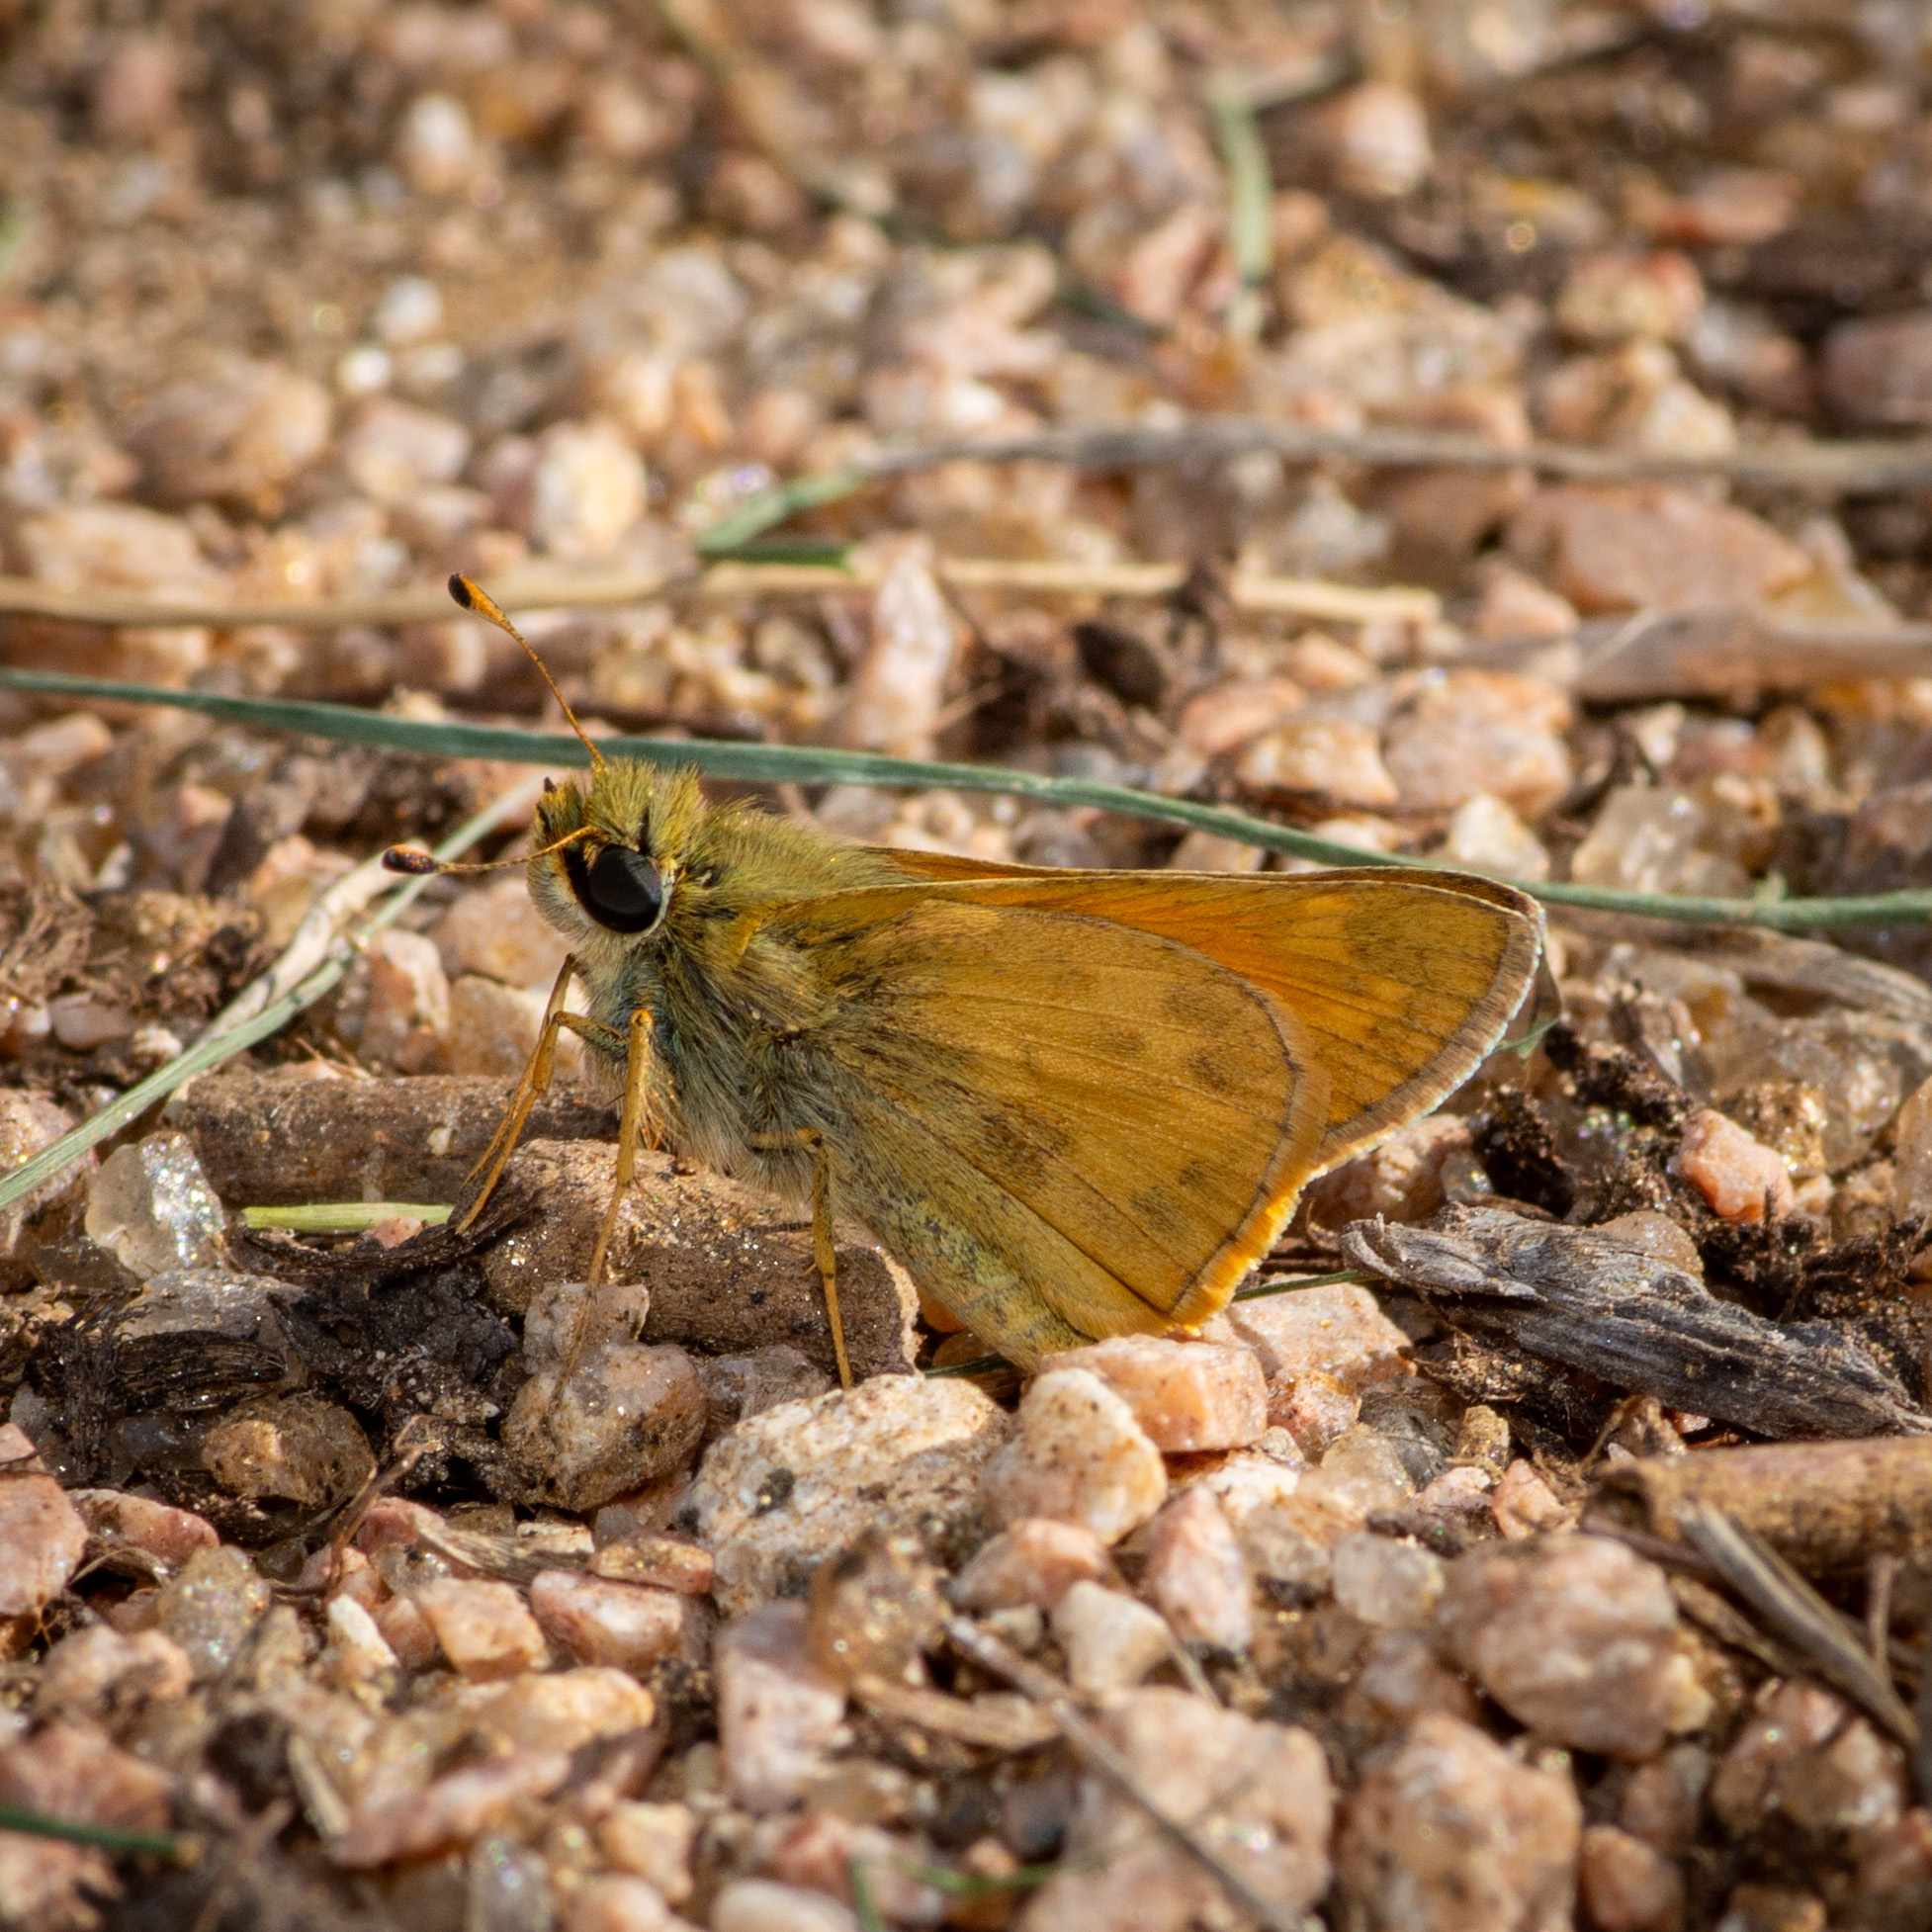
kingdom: Animalia
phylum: Arthropoda
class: Insecta
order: Lepidoptera
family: Hesperiidae
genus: Atalopedes
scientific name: Atalopedes
